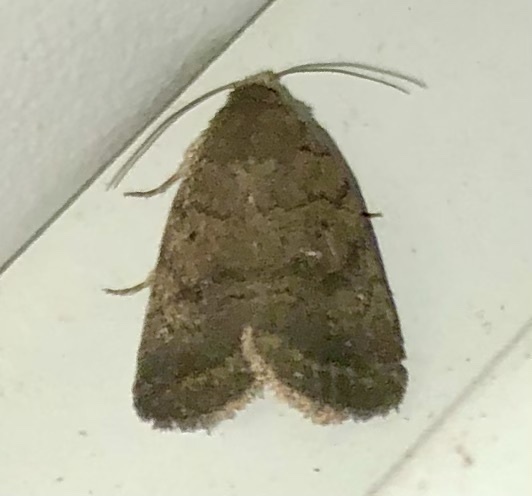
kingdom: Animalia
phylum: Arthropoda
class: Insecta
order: Lepidoptera
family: Noctuidae
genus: Athetis
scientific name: Athetis tarda
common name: Slowpoke moth
